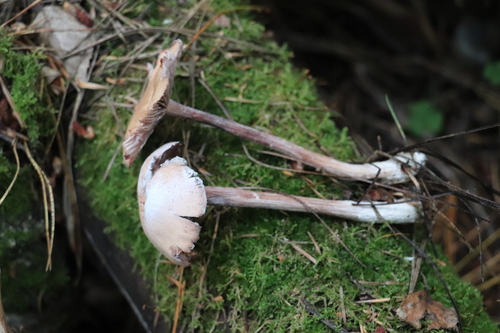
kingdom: Fungi
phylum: Basidiomycota
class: Agaricomycetes
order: Agaricales
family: Hydnangiaceae
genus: Laccaria
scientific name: Laccaria proxima
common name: Scurfy deceiver
